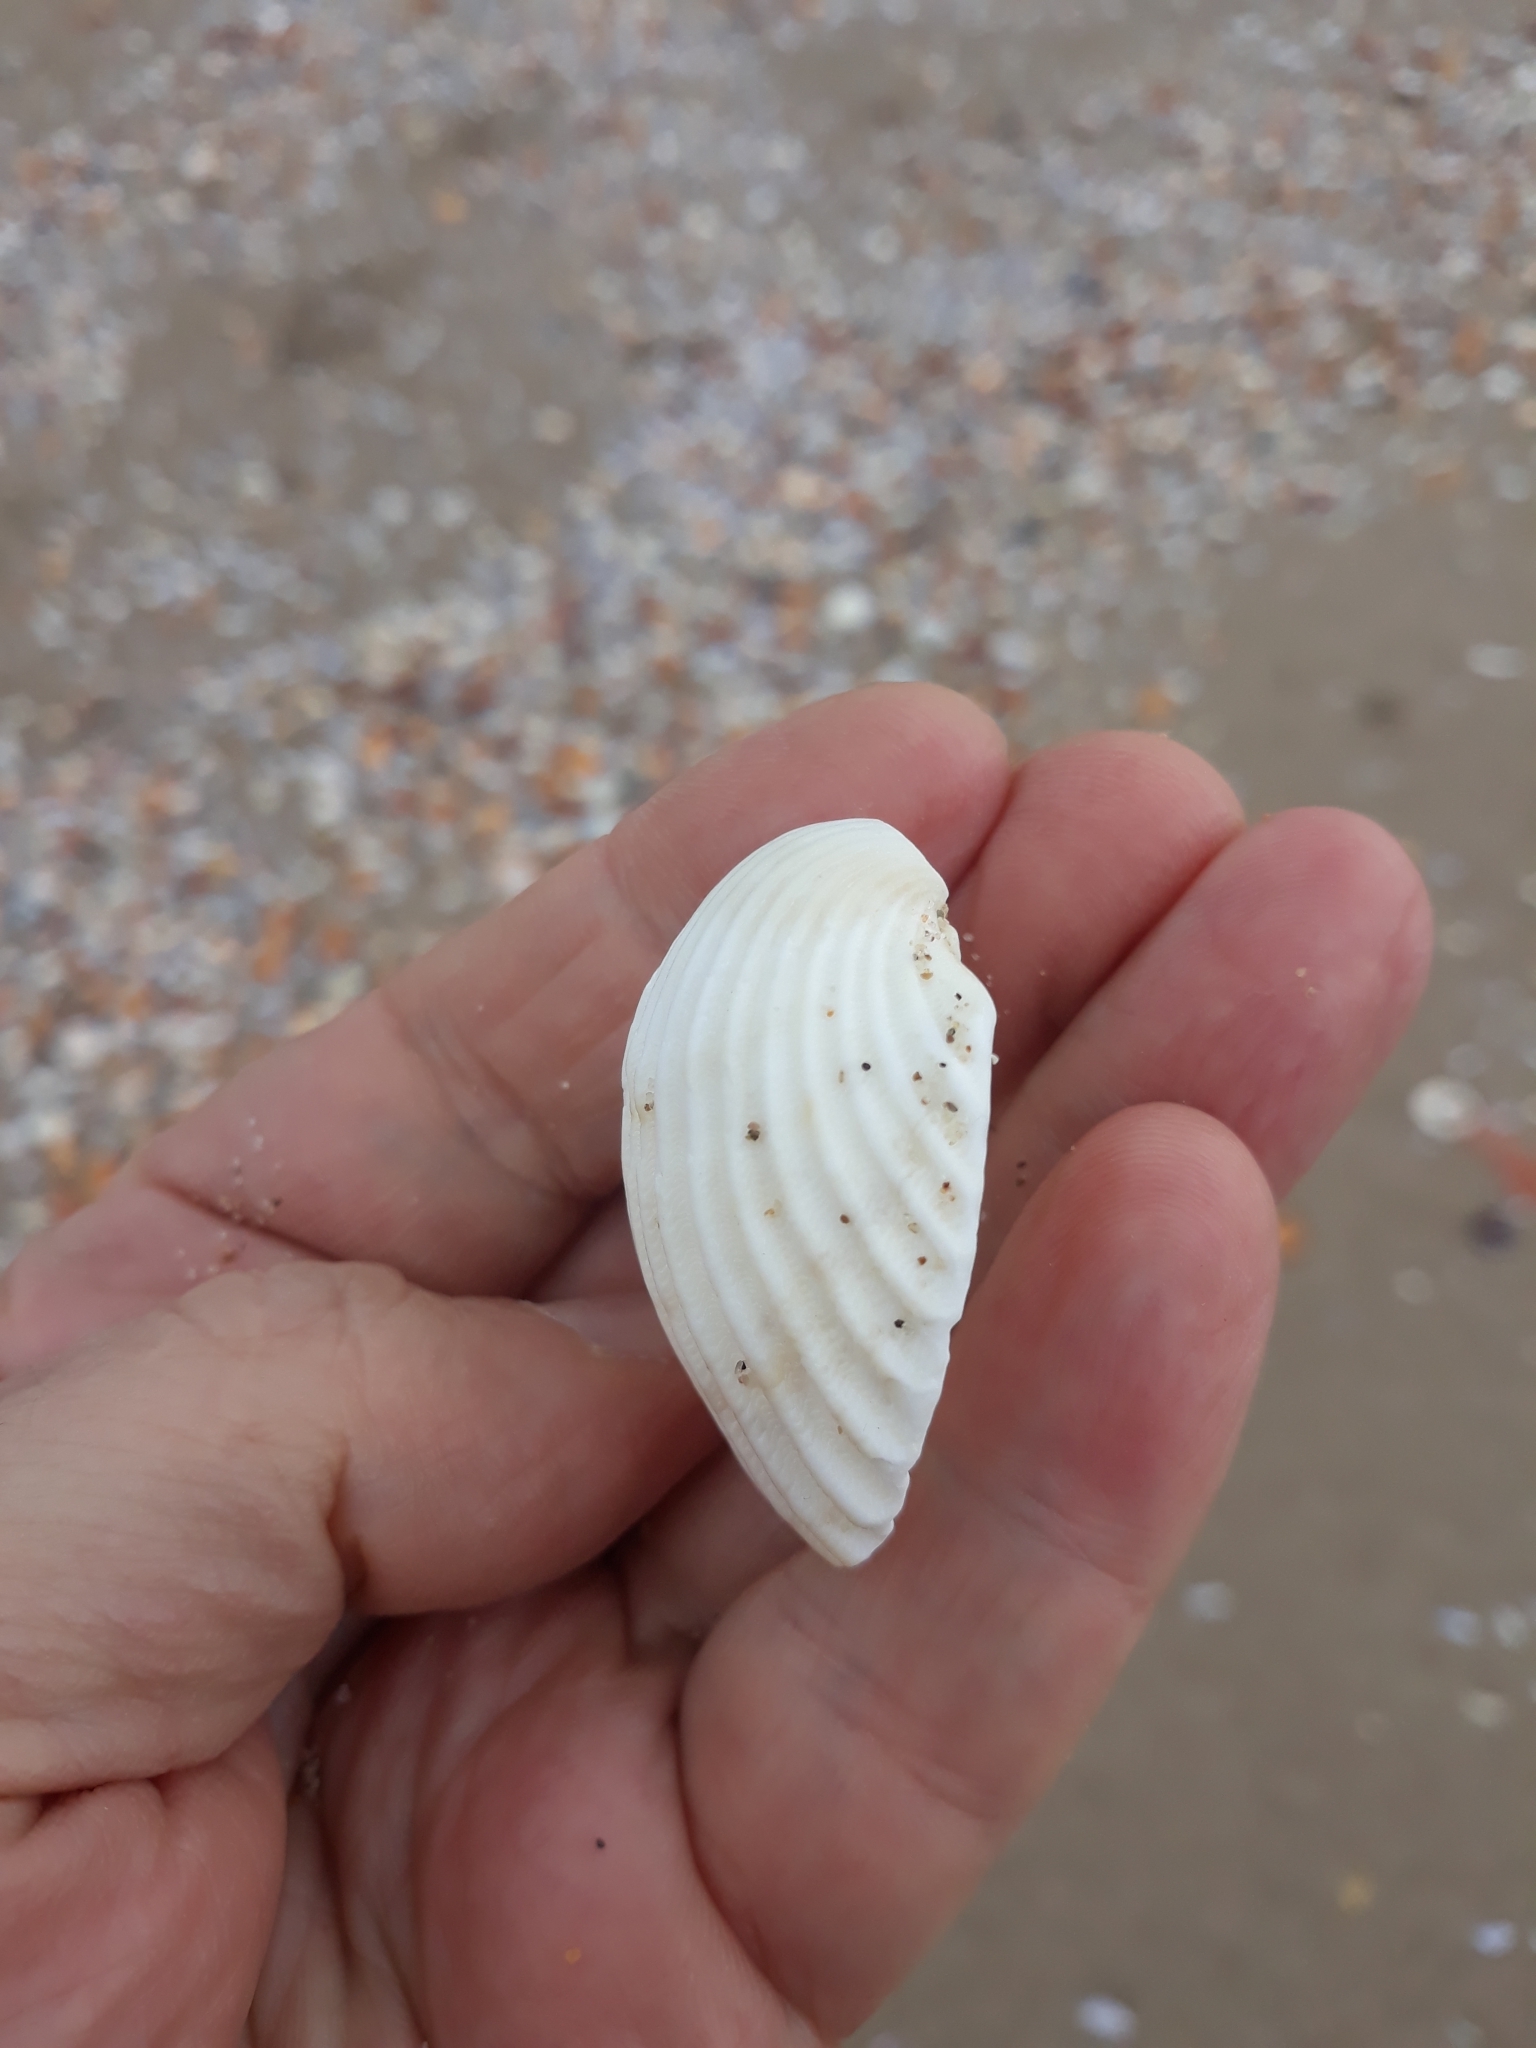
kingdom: Animalia
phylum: Mollusca
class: Bivalvia
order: Cardiida
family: Cardiidae
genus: Acanthocardia
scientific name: Acanthocardia tuberculata
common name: Rough cockle
